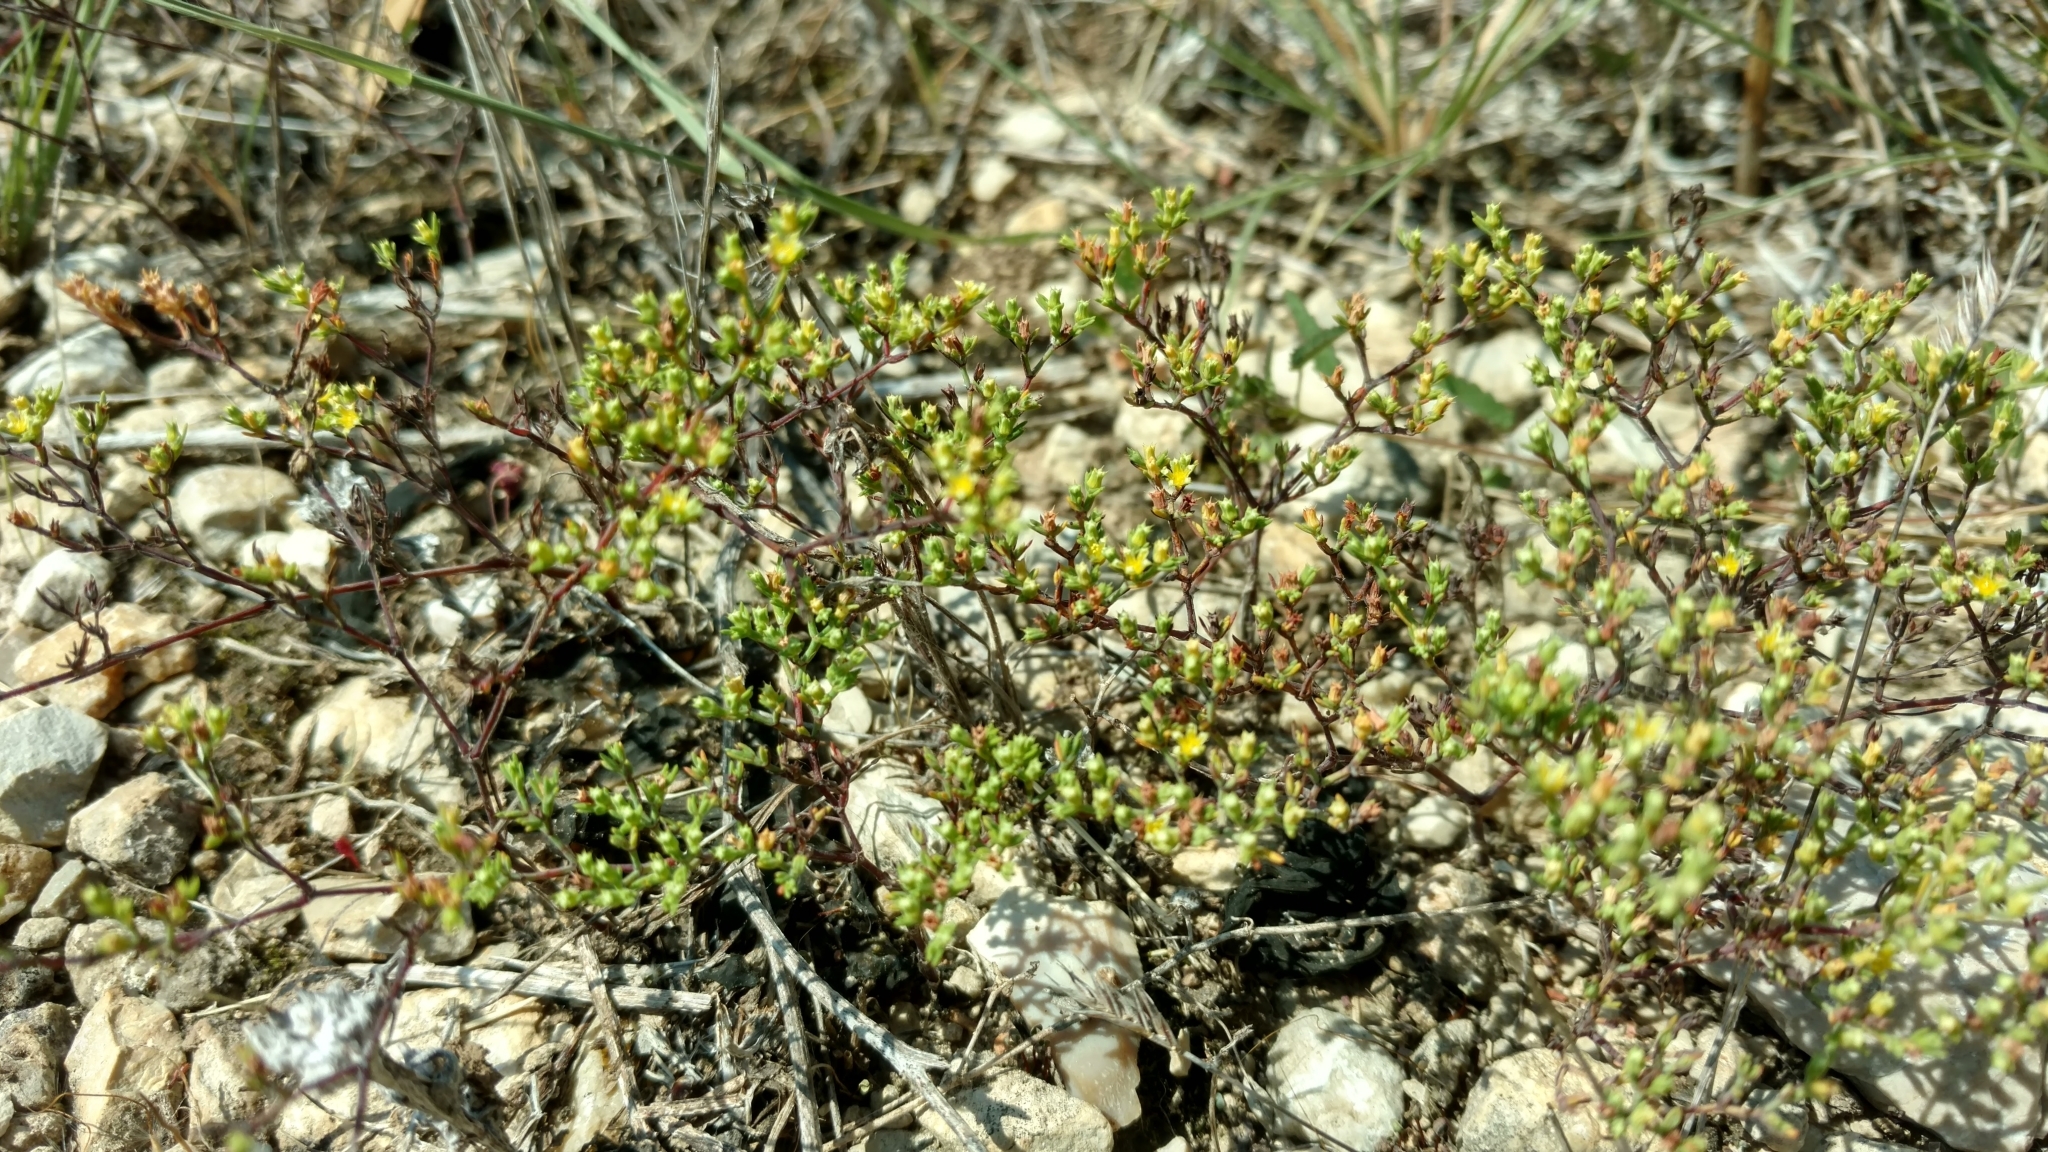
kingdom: Plantae
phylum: Tracheophyta
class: Magnoliopsida
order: Caryophyllales
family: Caryophyllaceae
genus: Paronychia
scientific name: Paronychia lindheimeri
